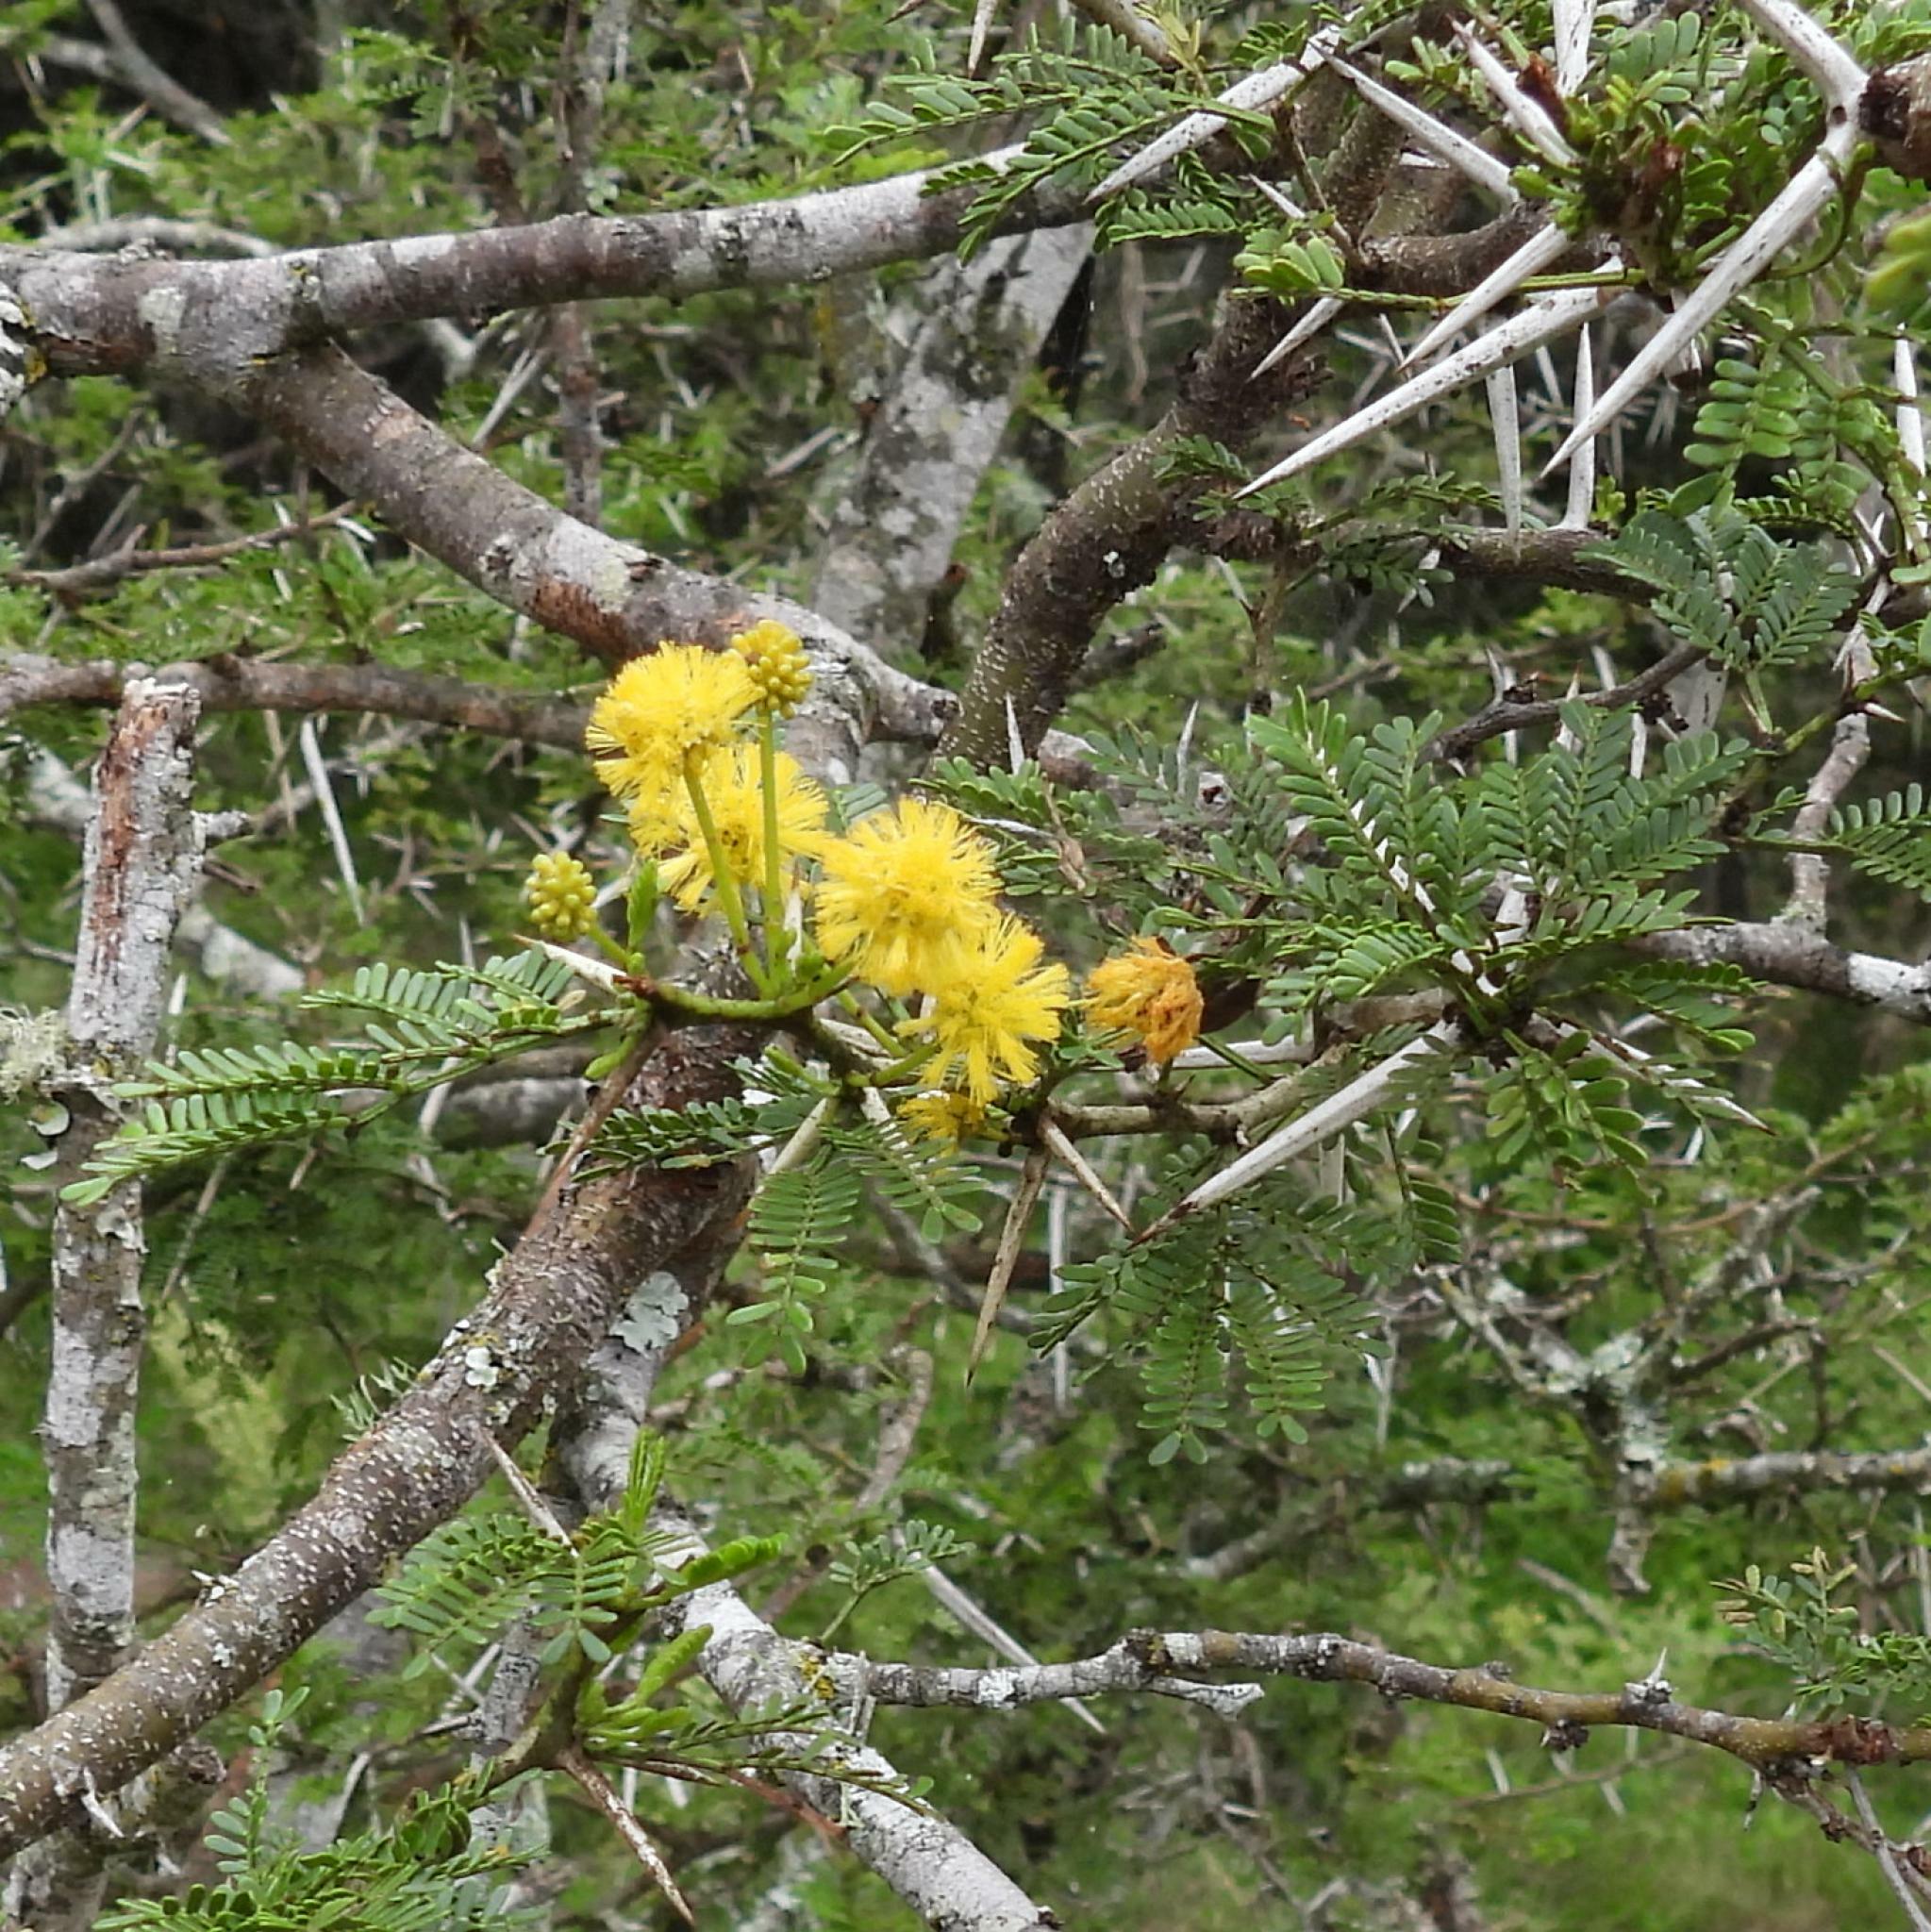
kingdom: Plantae
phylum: Tracheophyta
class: Magnoliopsida
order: Fabales
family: Fabaceae
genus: Vachellia
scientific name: Vachellia karroo
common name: Sweet thorn
